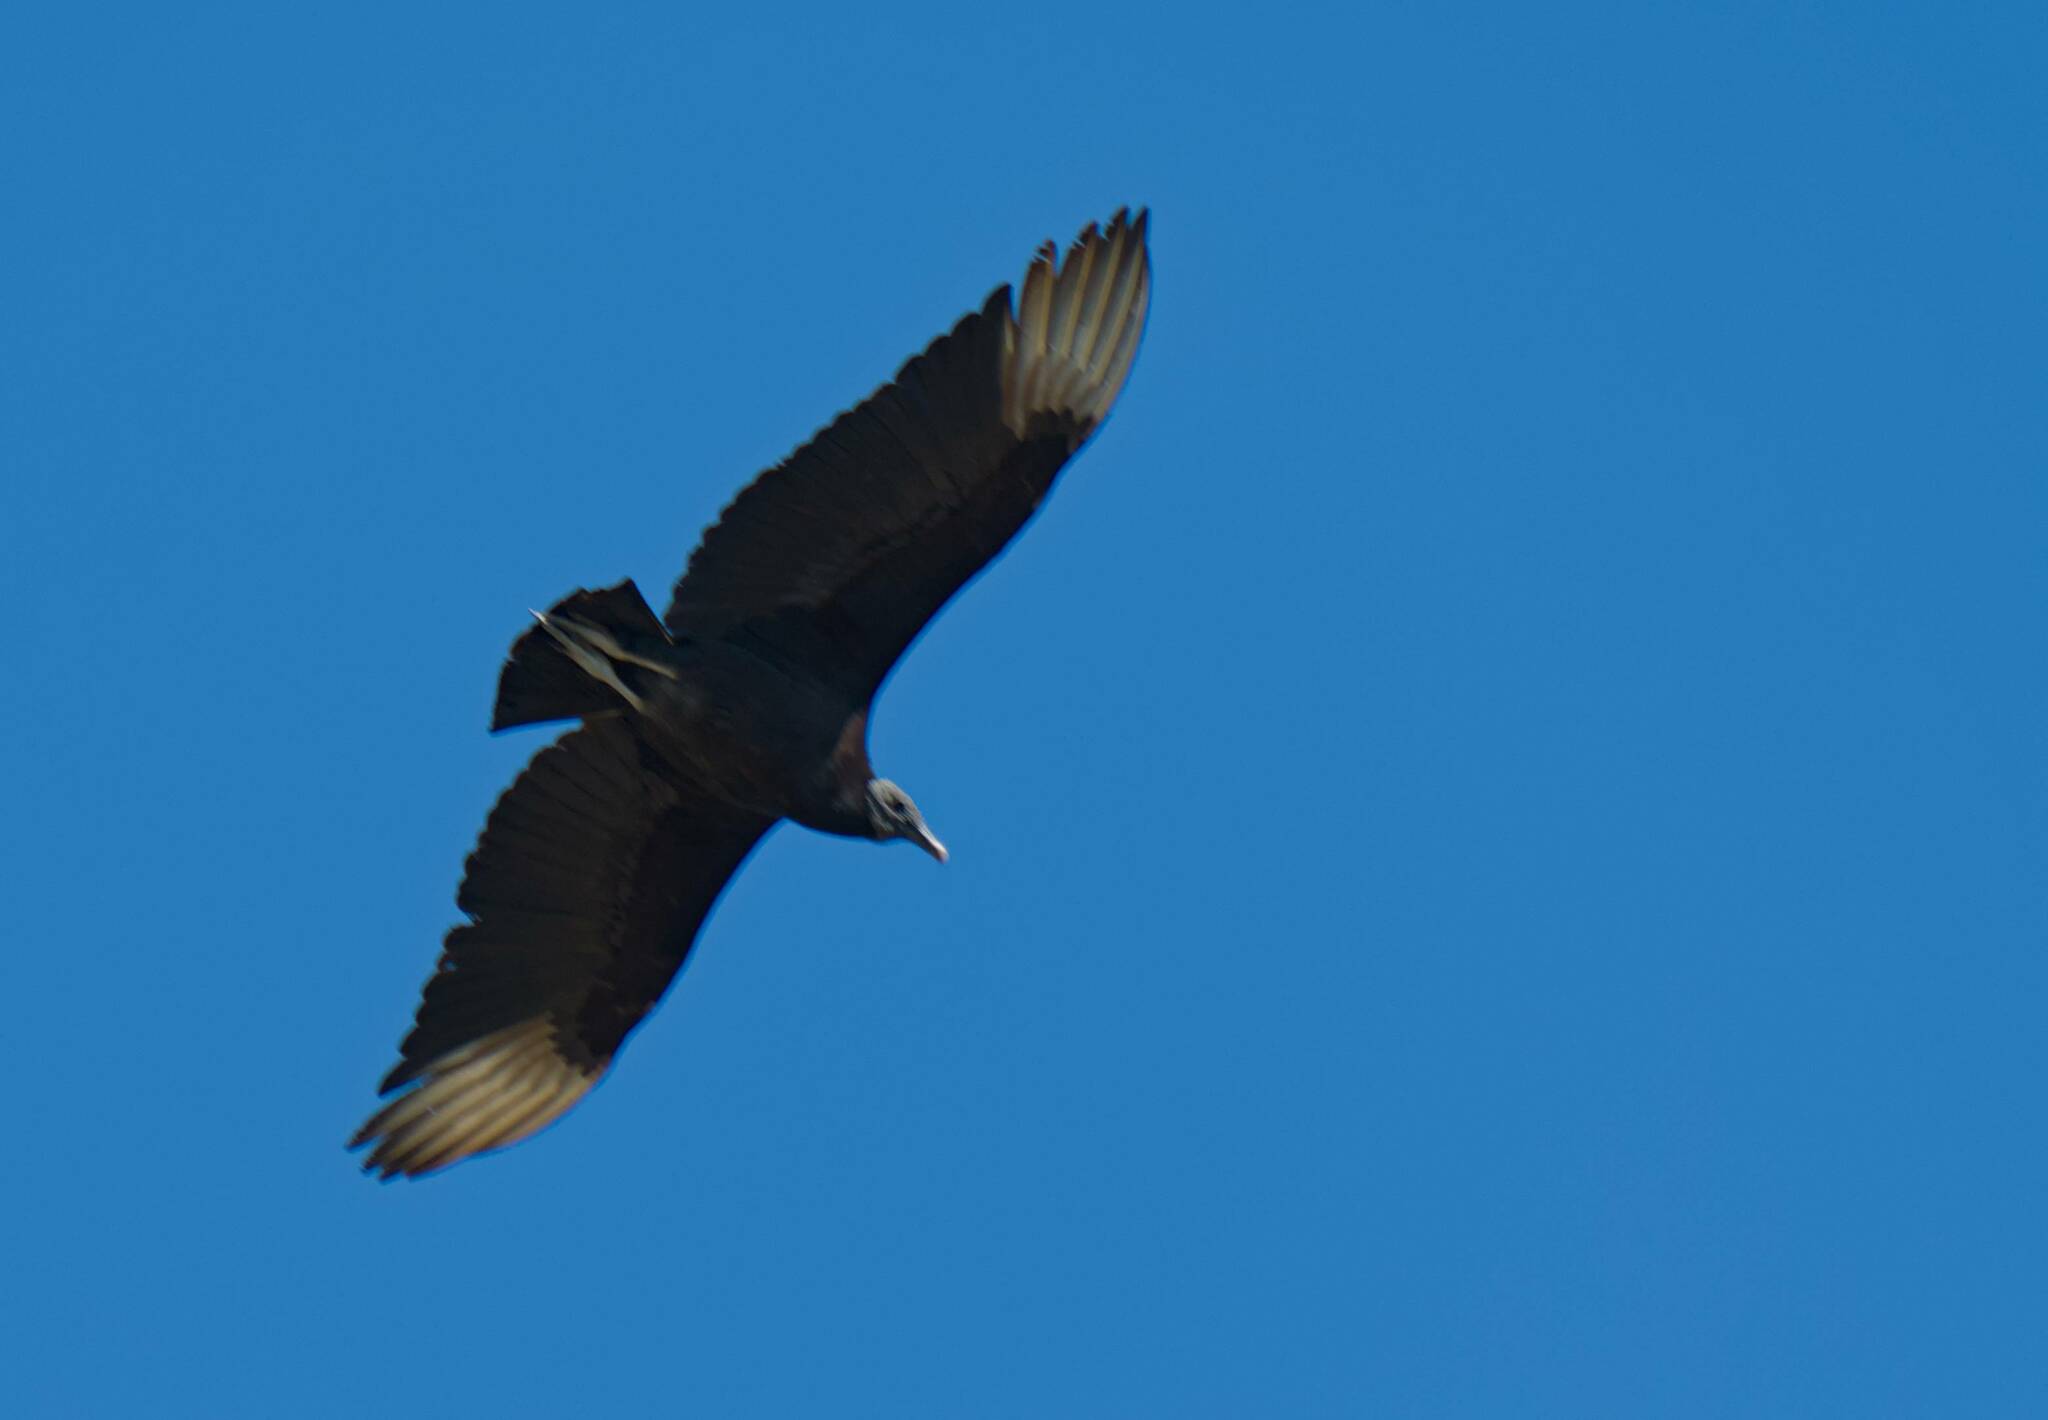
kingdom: Animalia
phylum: Chordata
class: Aves
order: Accipitriformes
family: Cathartidae
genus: Coragyps
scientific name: Coragyps atratus
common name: Black vulture
